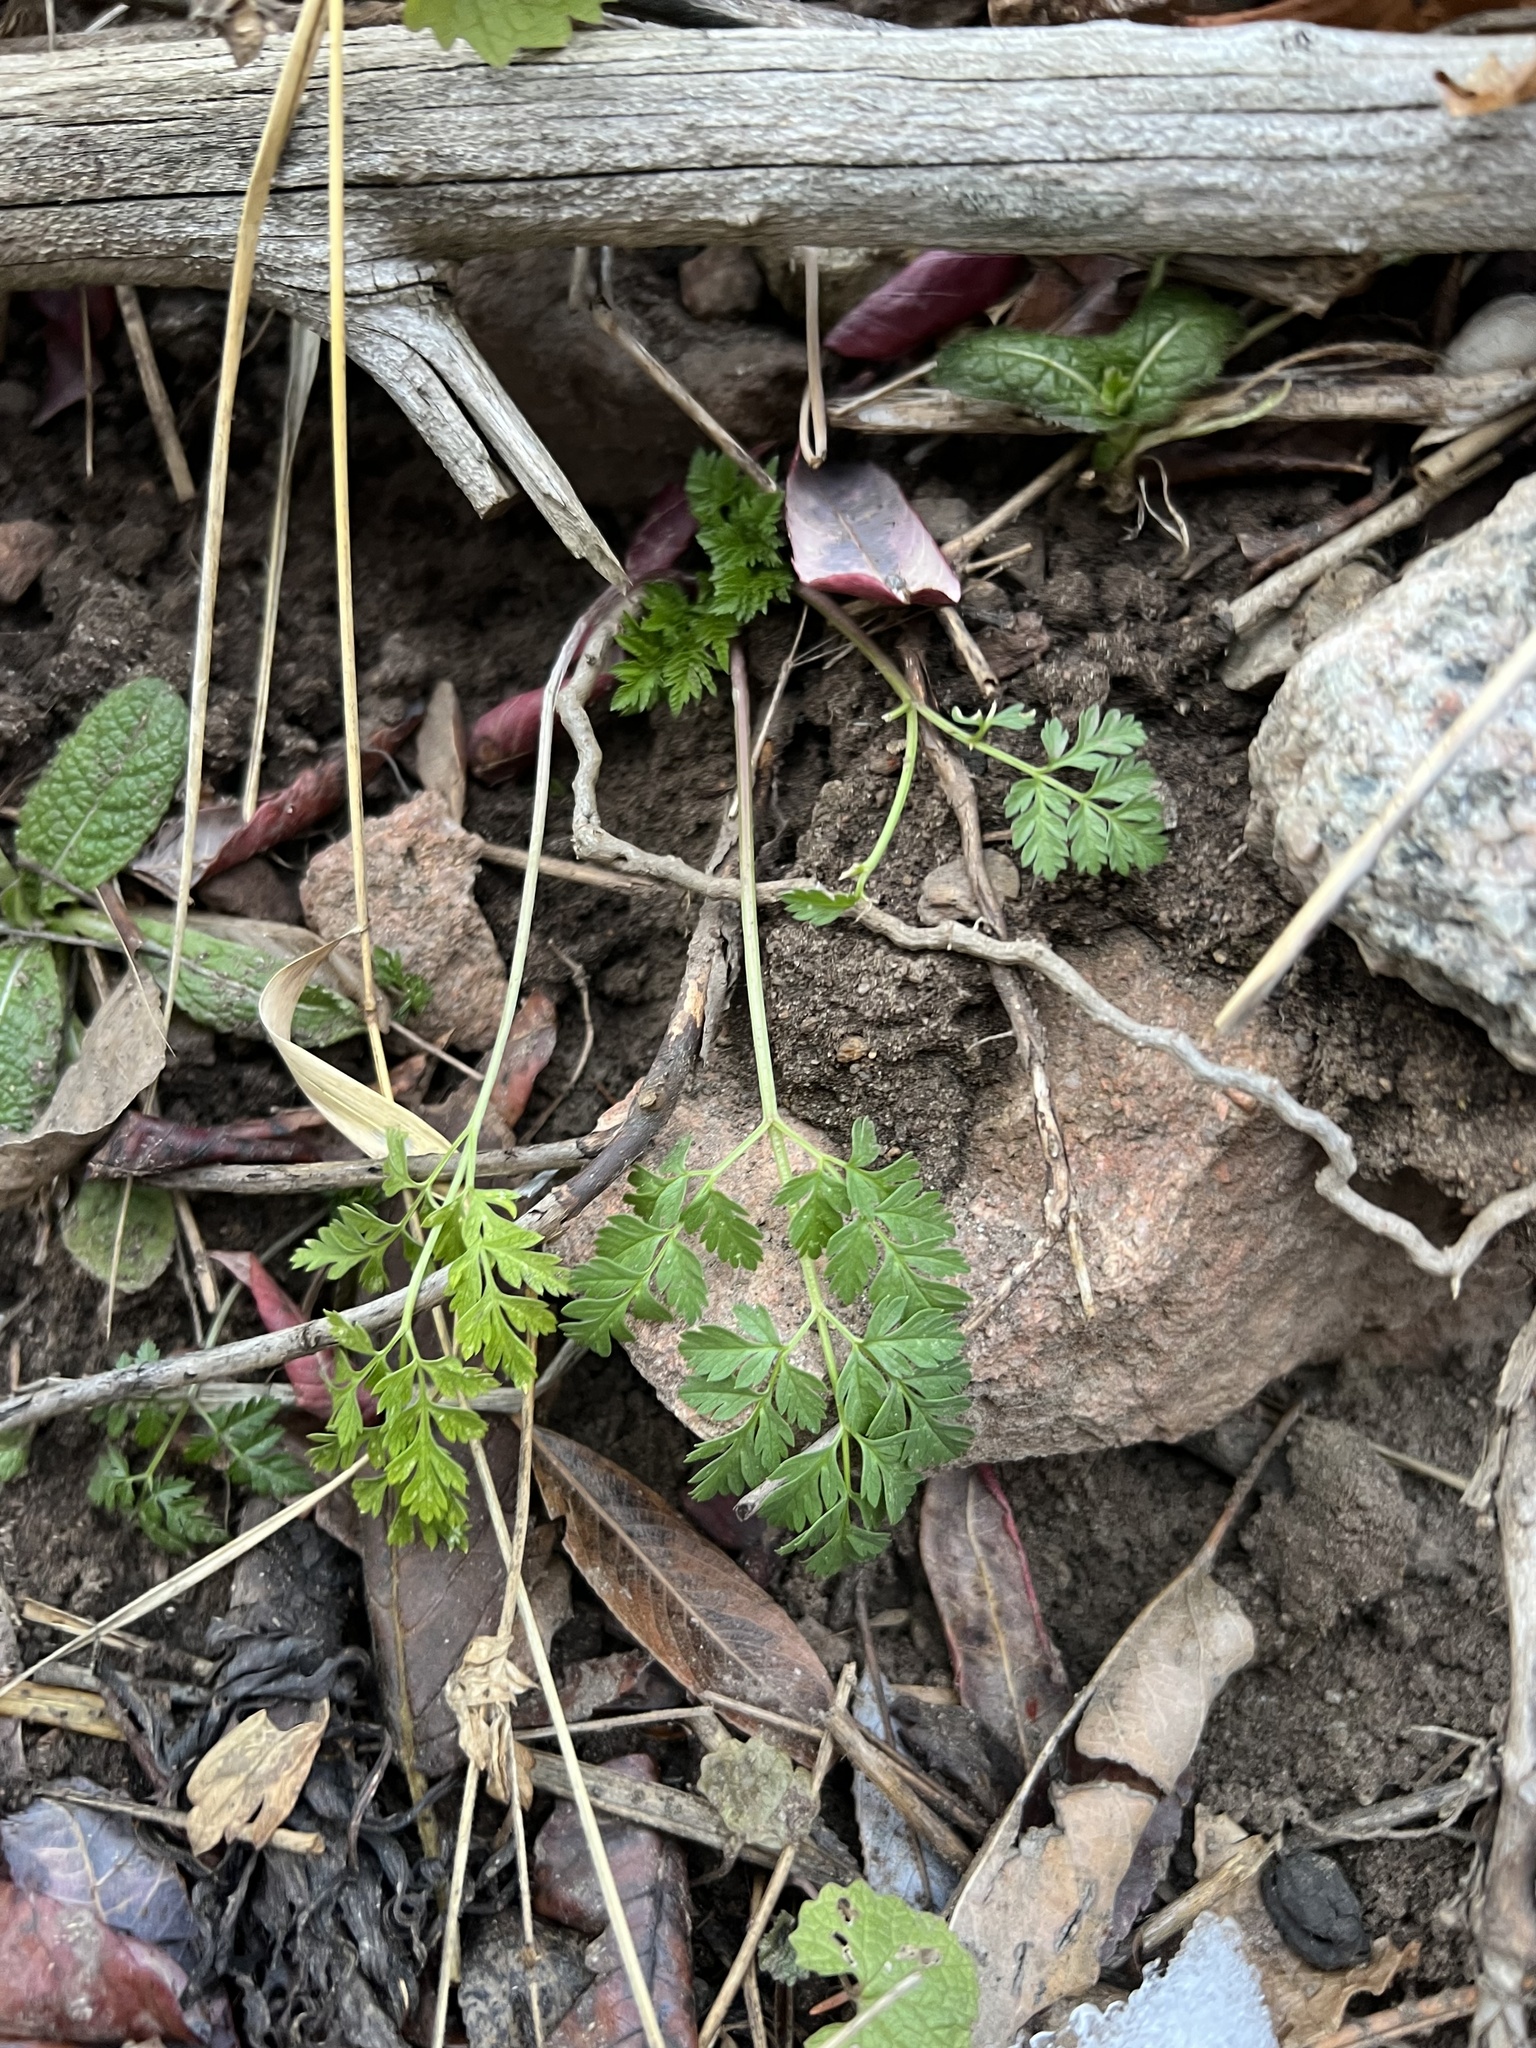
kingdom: Plantae
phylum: Tracheophyta
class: Magnoliopsida
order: Apiales
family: Apiaceae
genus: Conium
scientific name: Conium maculatum
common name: Hemlock
